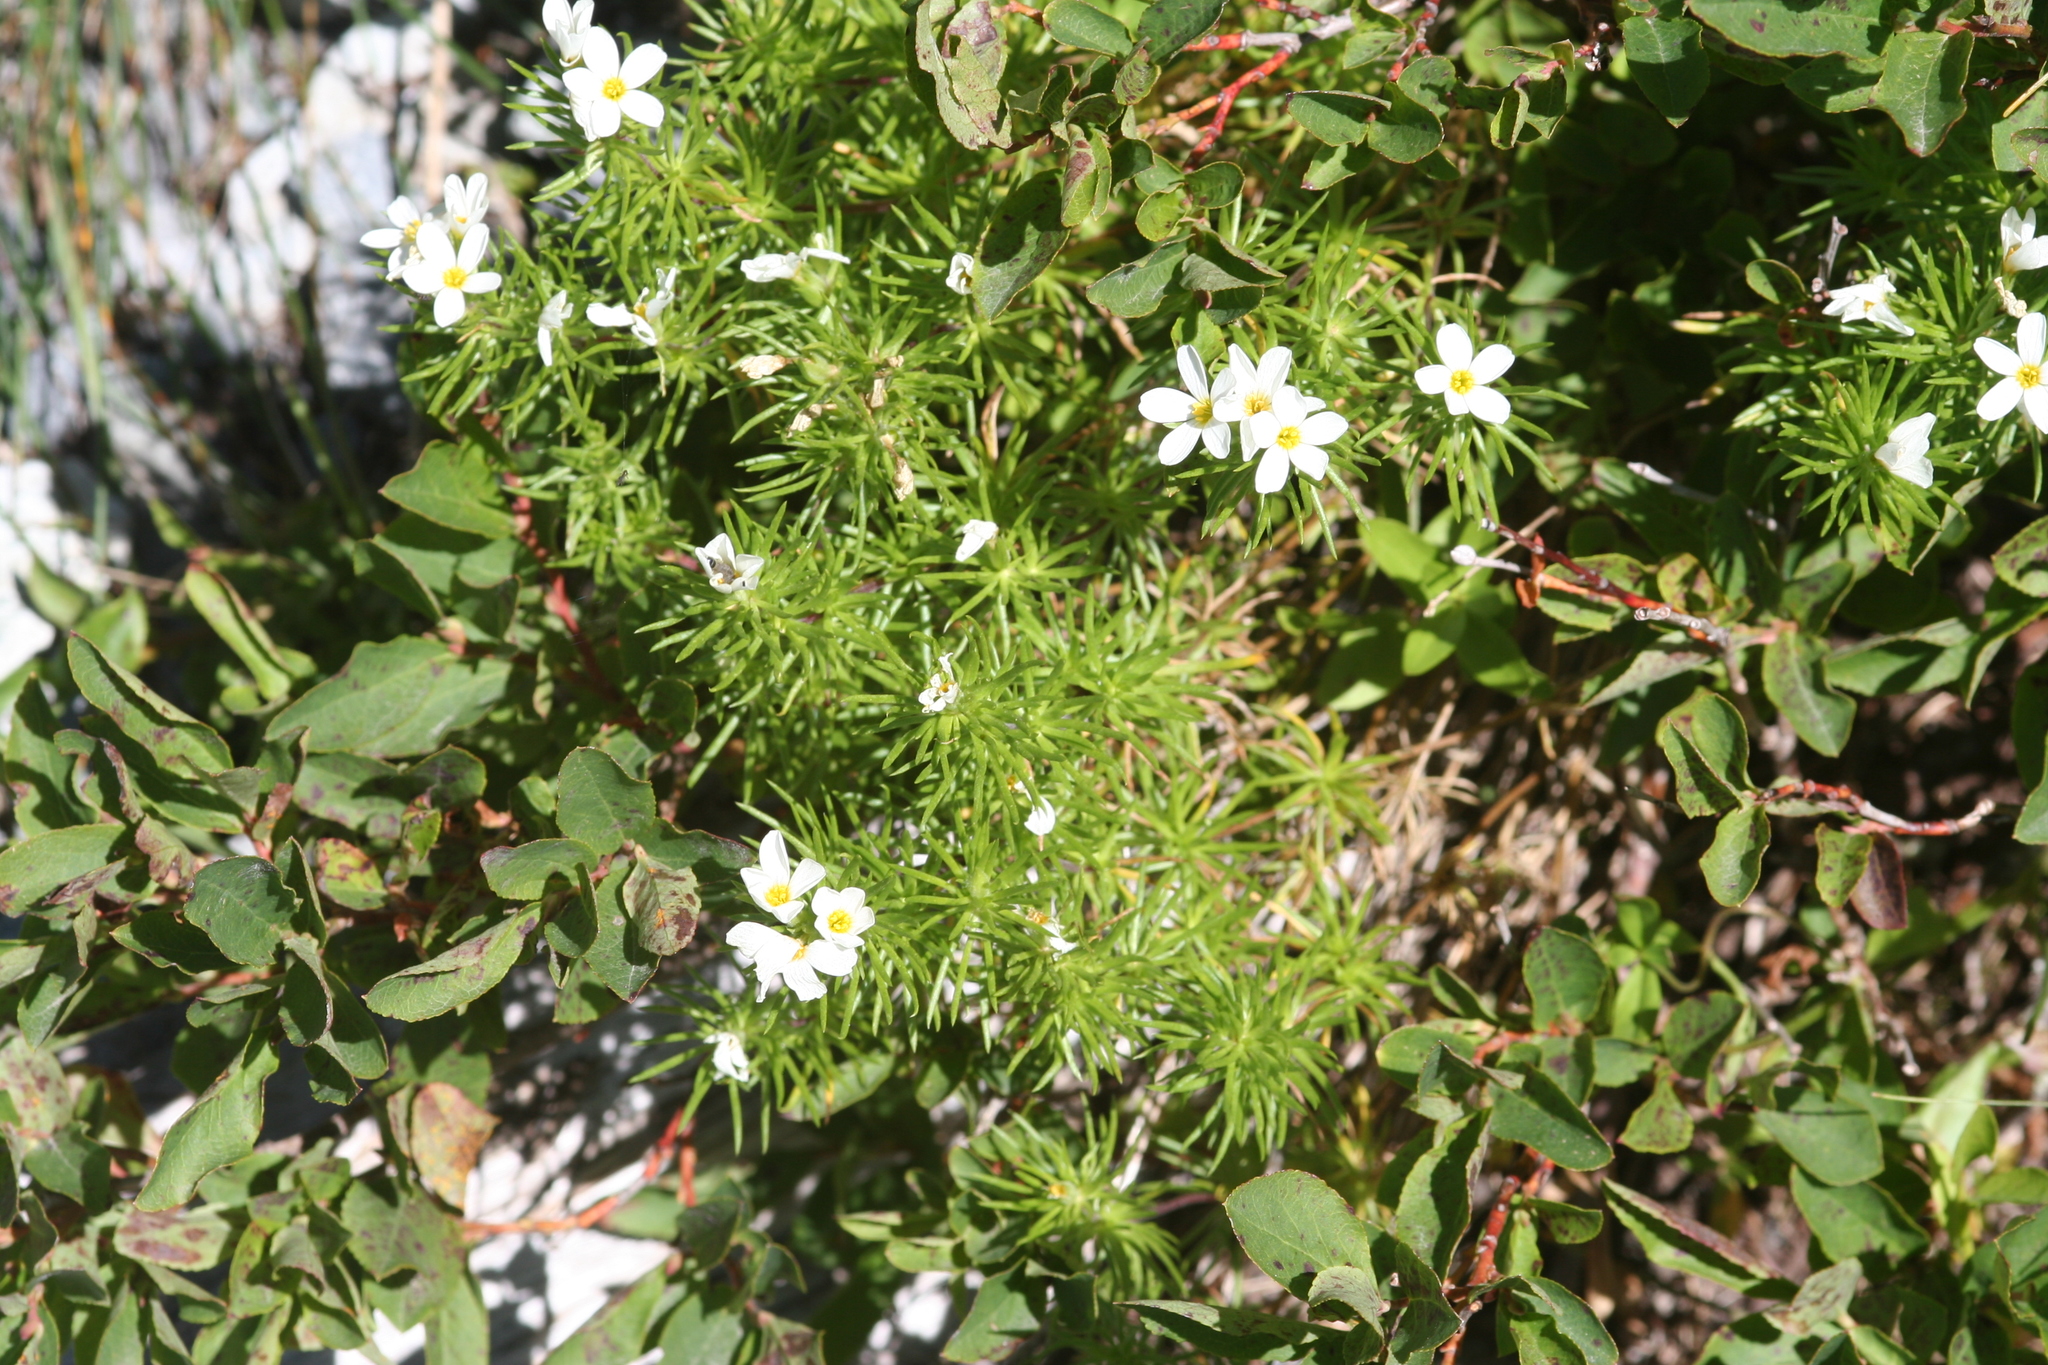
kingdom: Plantae
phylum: Tracheophyta
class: Magnoliopsida
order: Ericales
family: Polemoniaceae
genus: Leptosiphon
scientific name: Leptosiphon nuttallii
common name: Nuttall's linanthus
